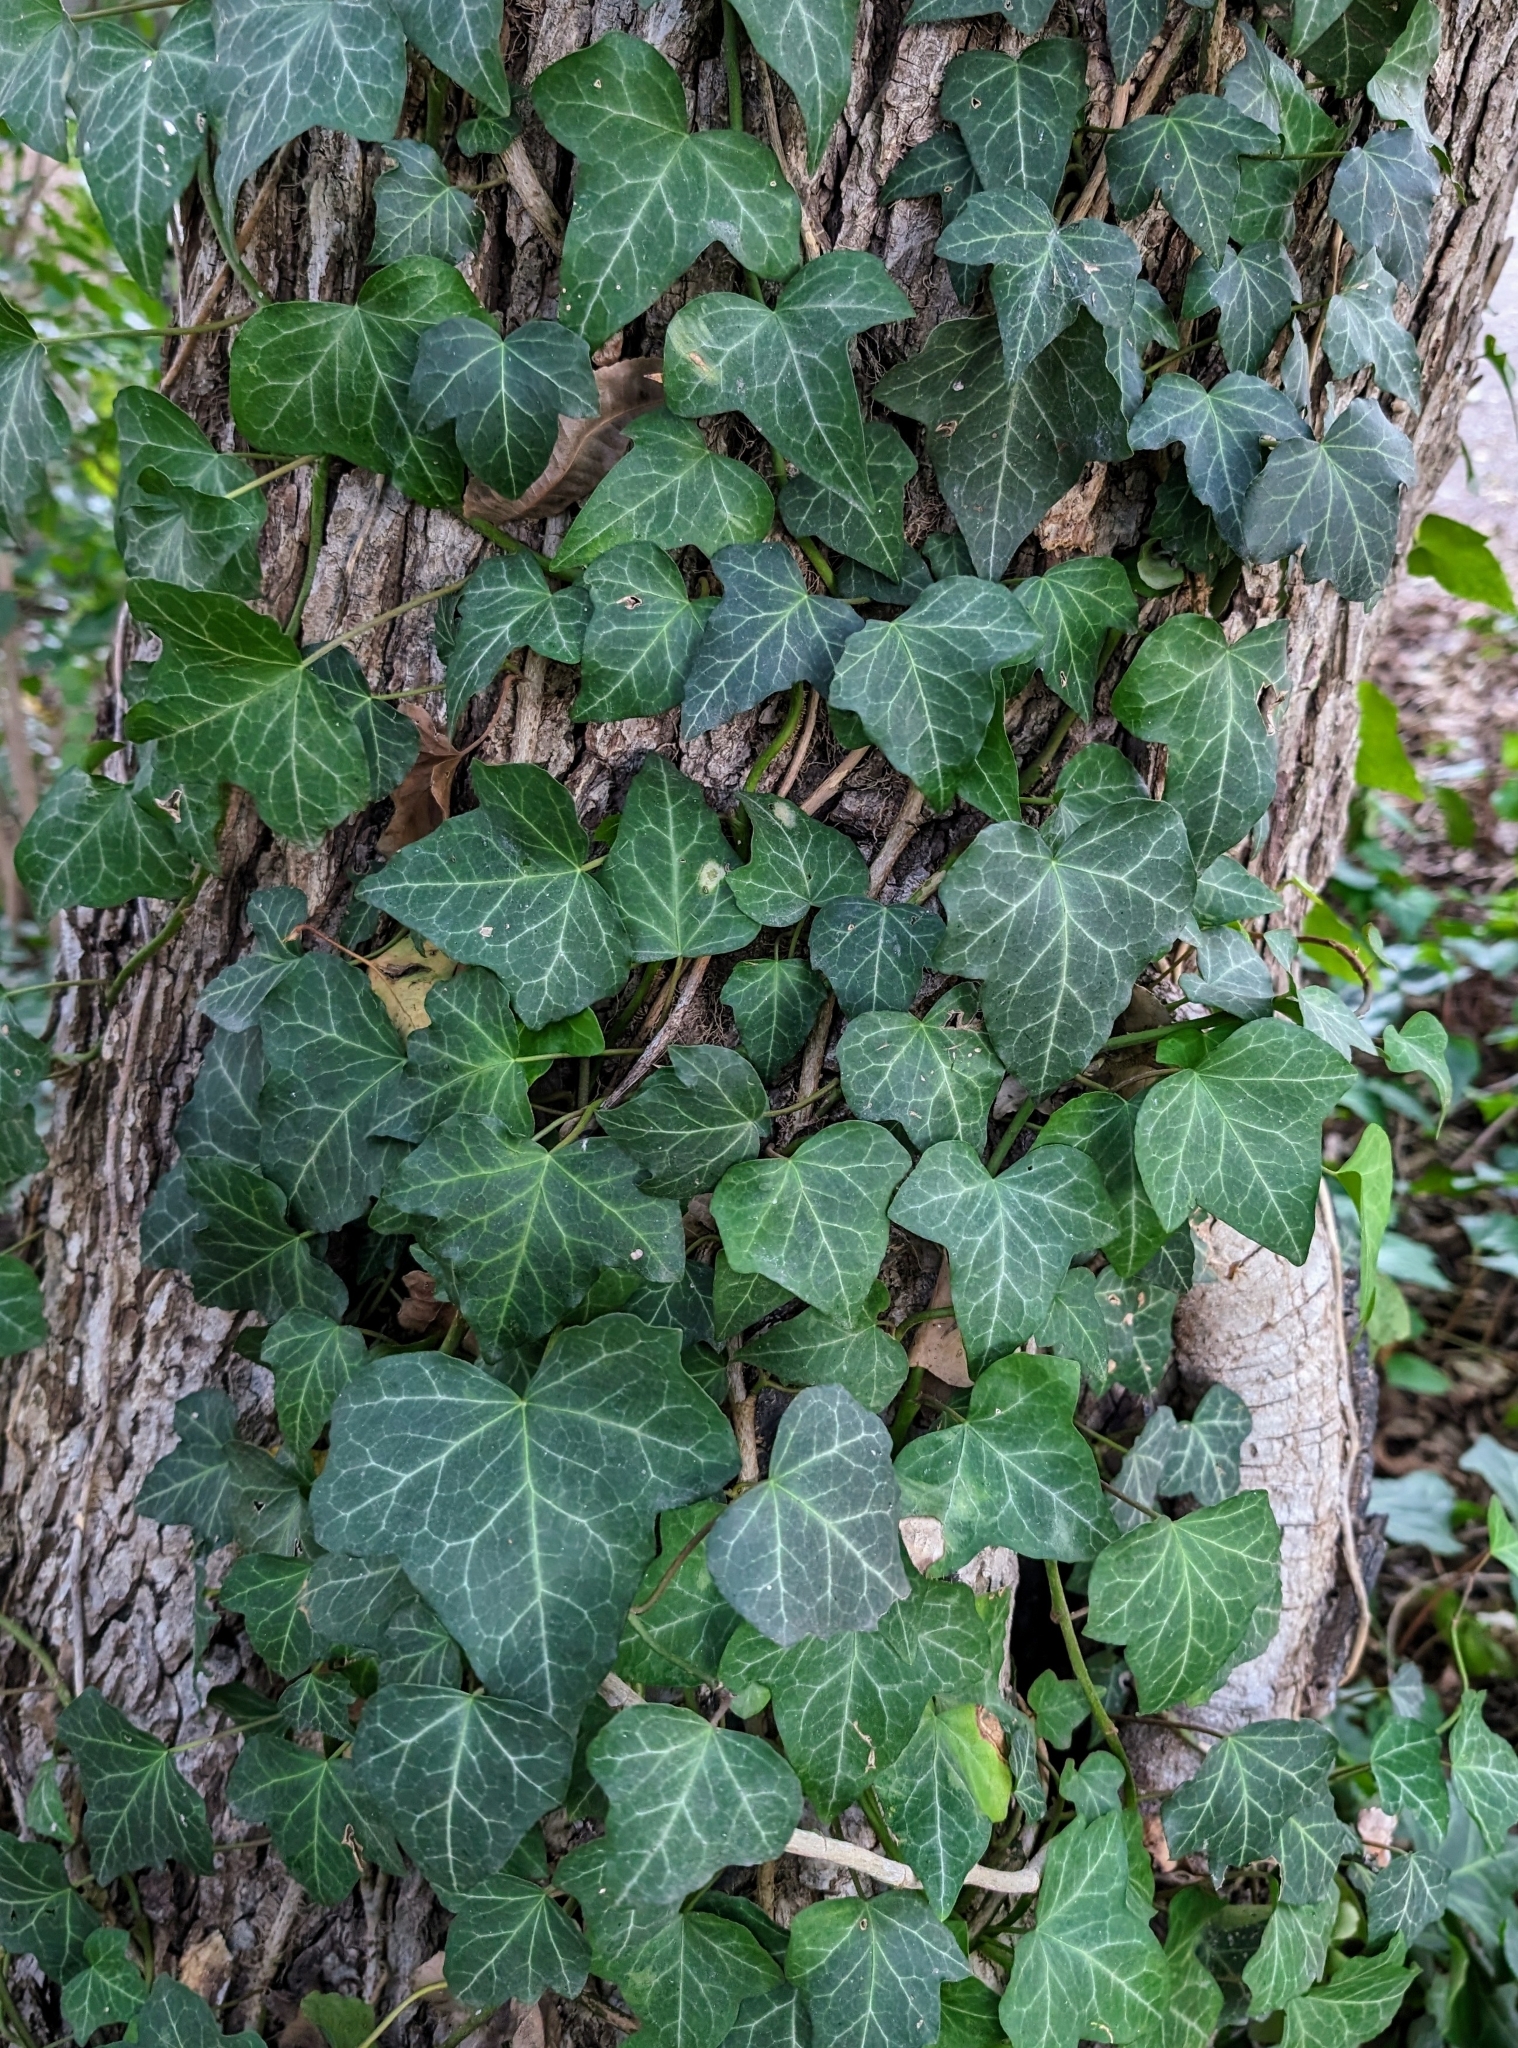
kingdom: Plantae
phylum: Tracheophyta
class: Magnoliopsida
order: Apiales
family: Araliaceae
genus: Hedera
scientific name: Hedera helix
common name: Ivy
